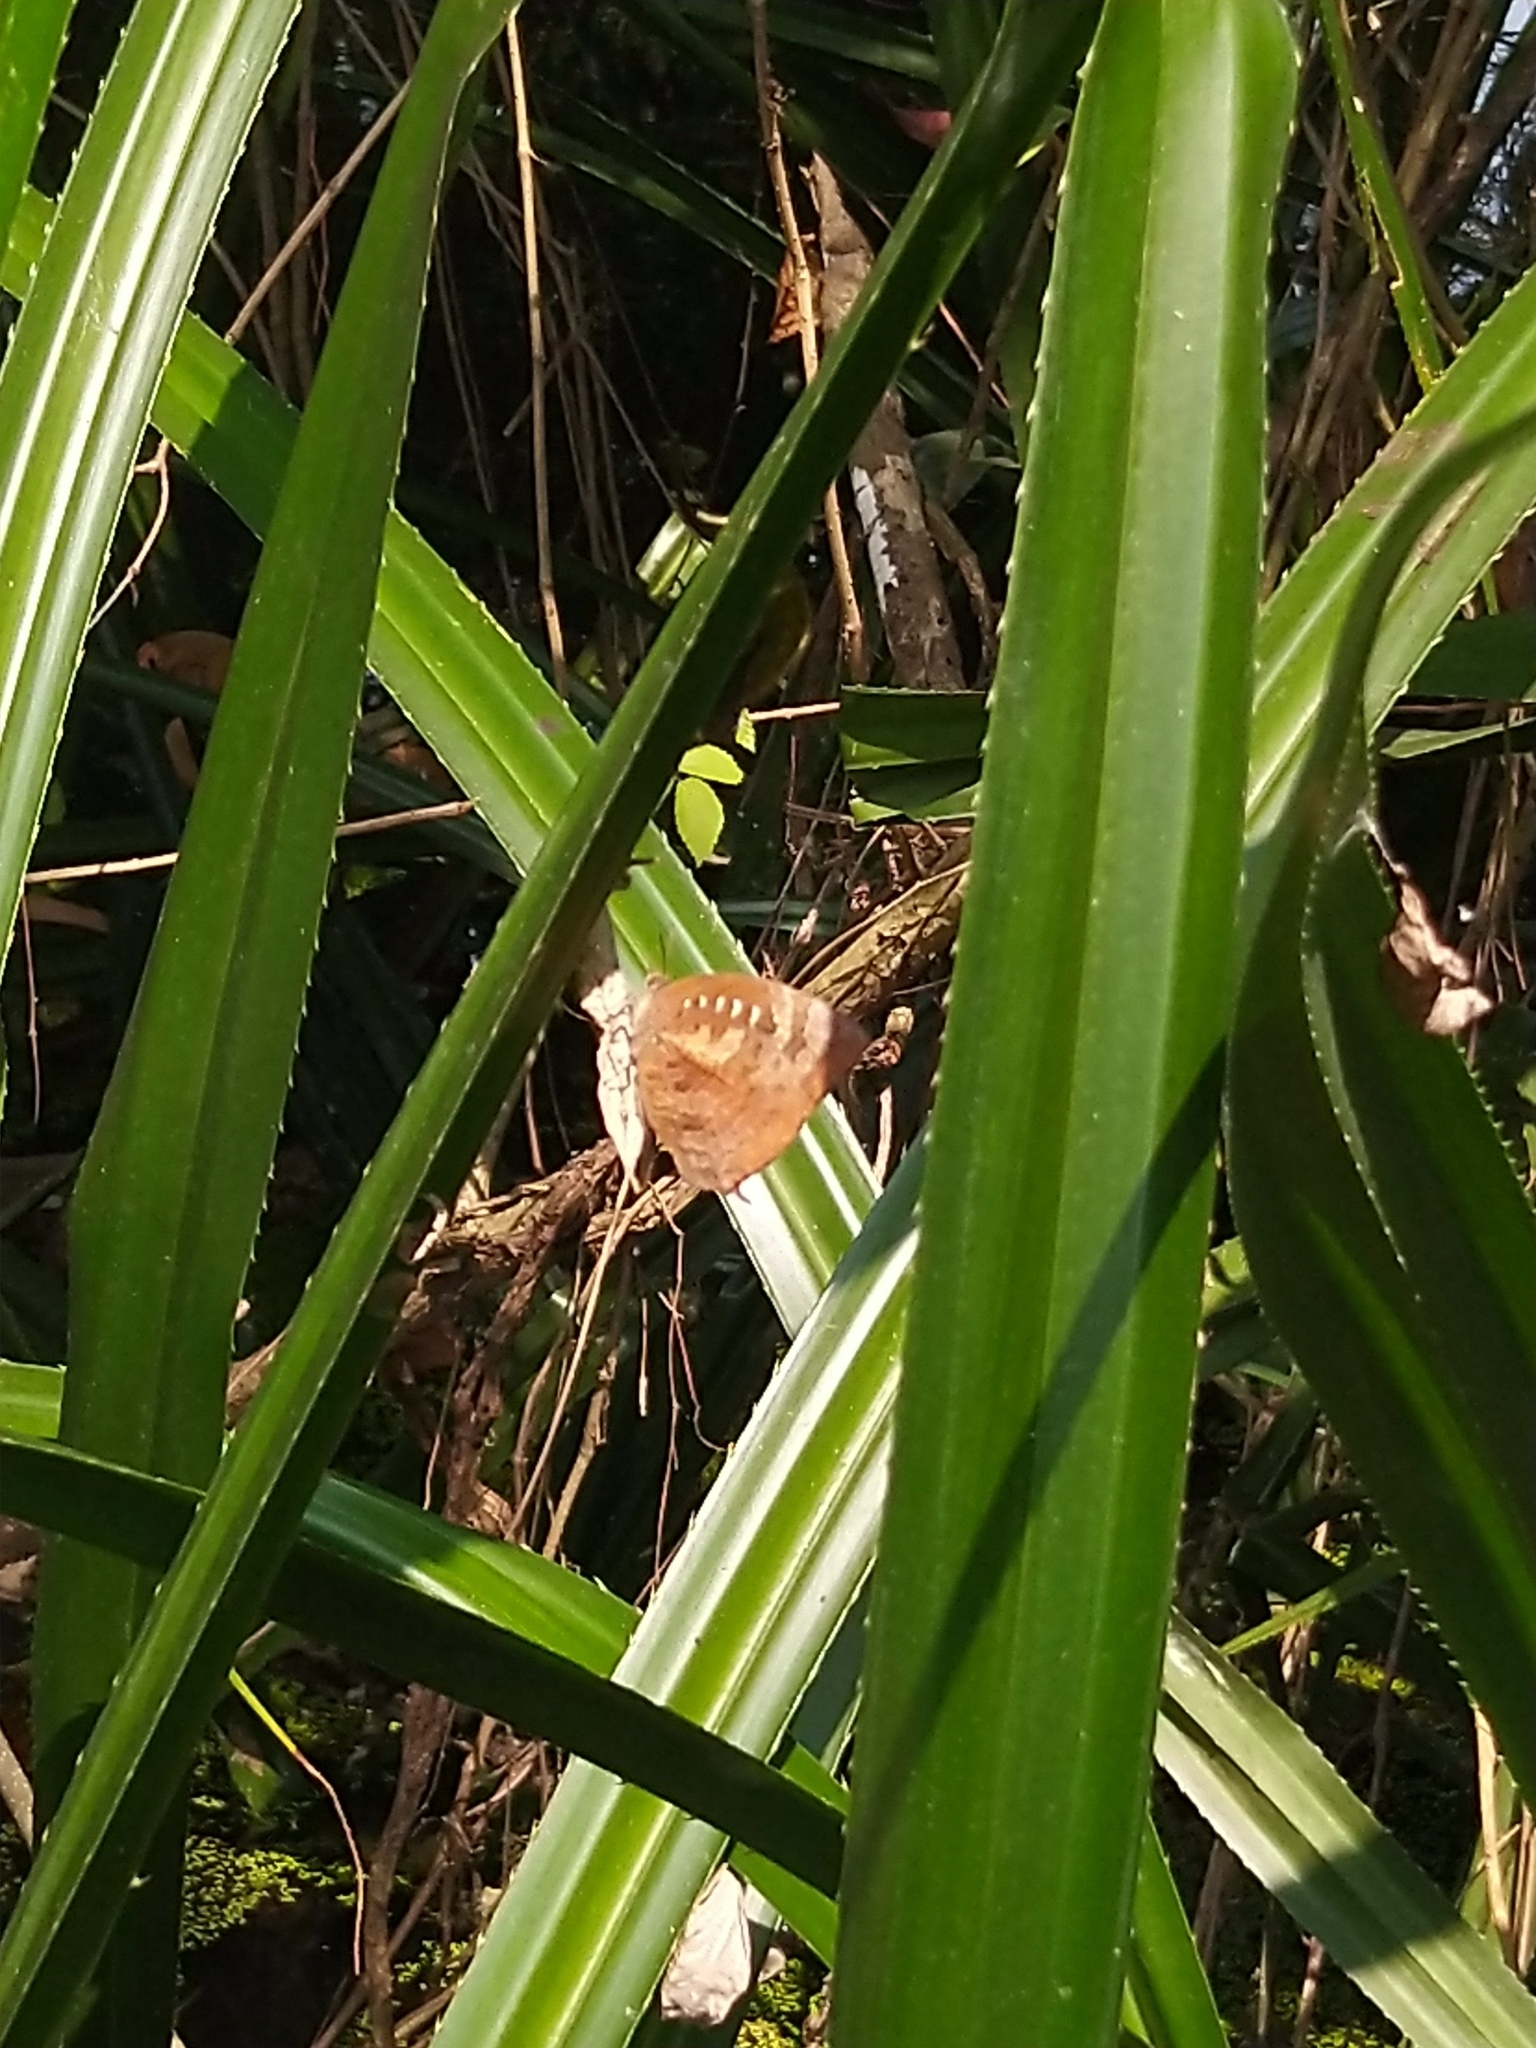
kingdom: Animalia
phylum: Arthropoda
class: Insecta
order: Lepidoptera
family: Lycaenidae
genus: Arhopala
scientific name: Arhopala centaurus
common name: Dull oak-blue
